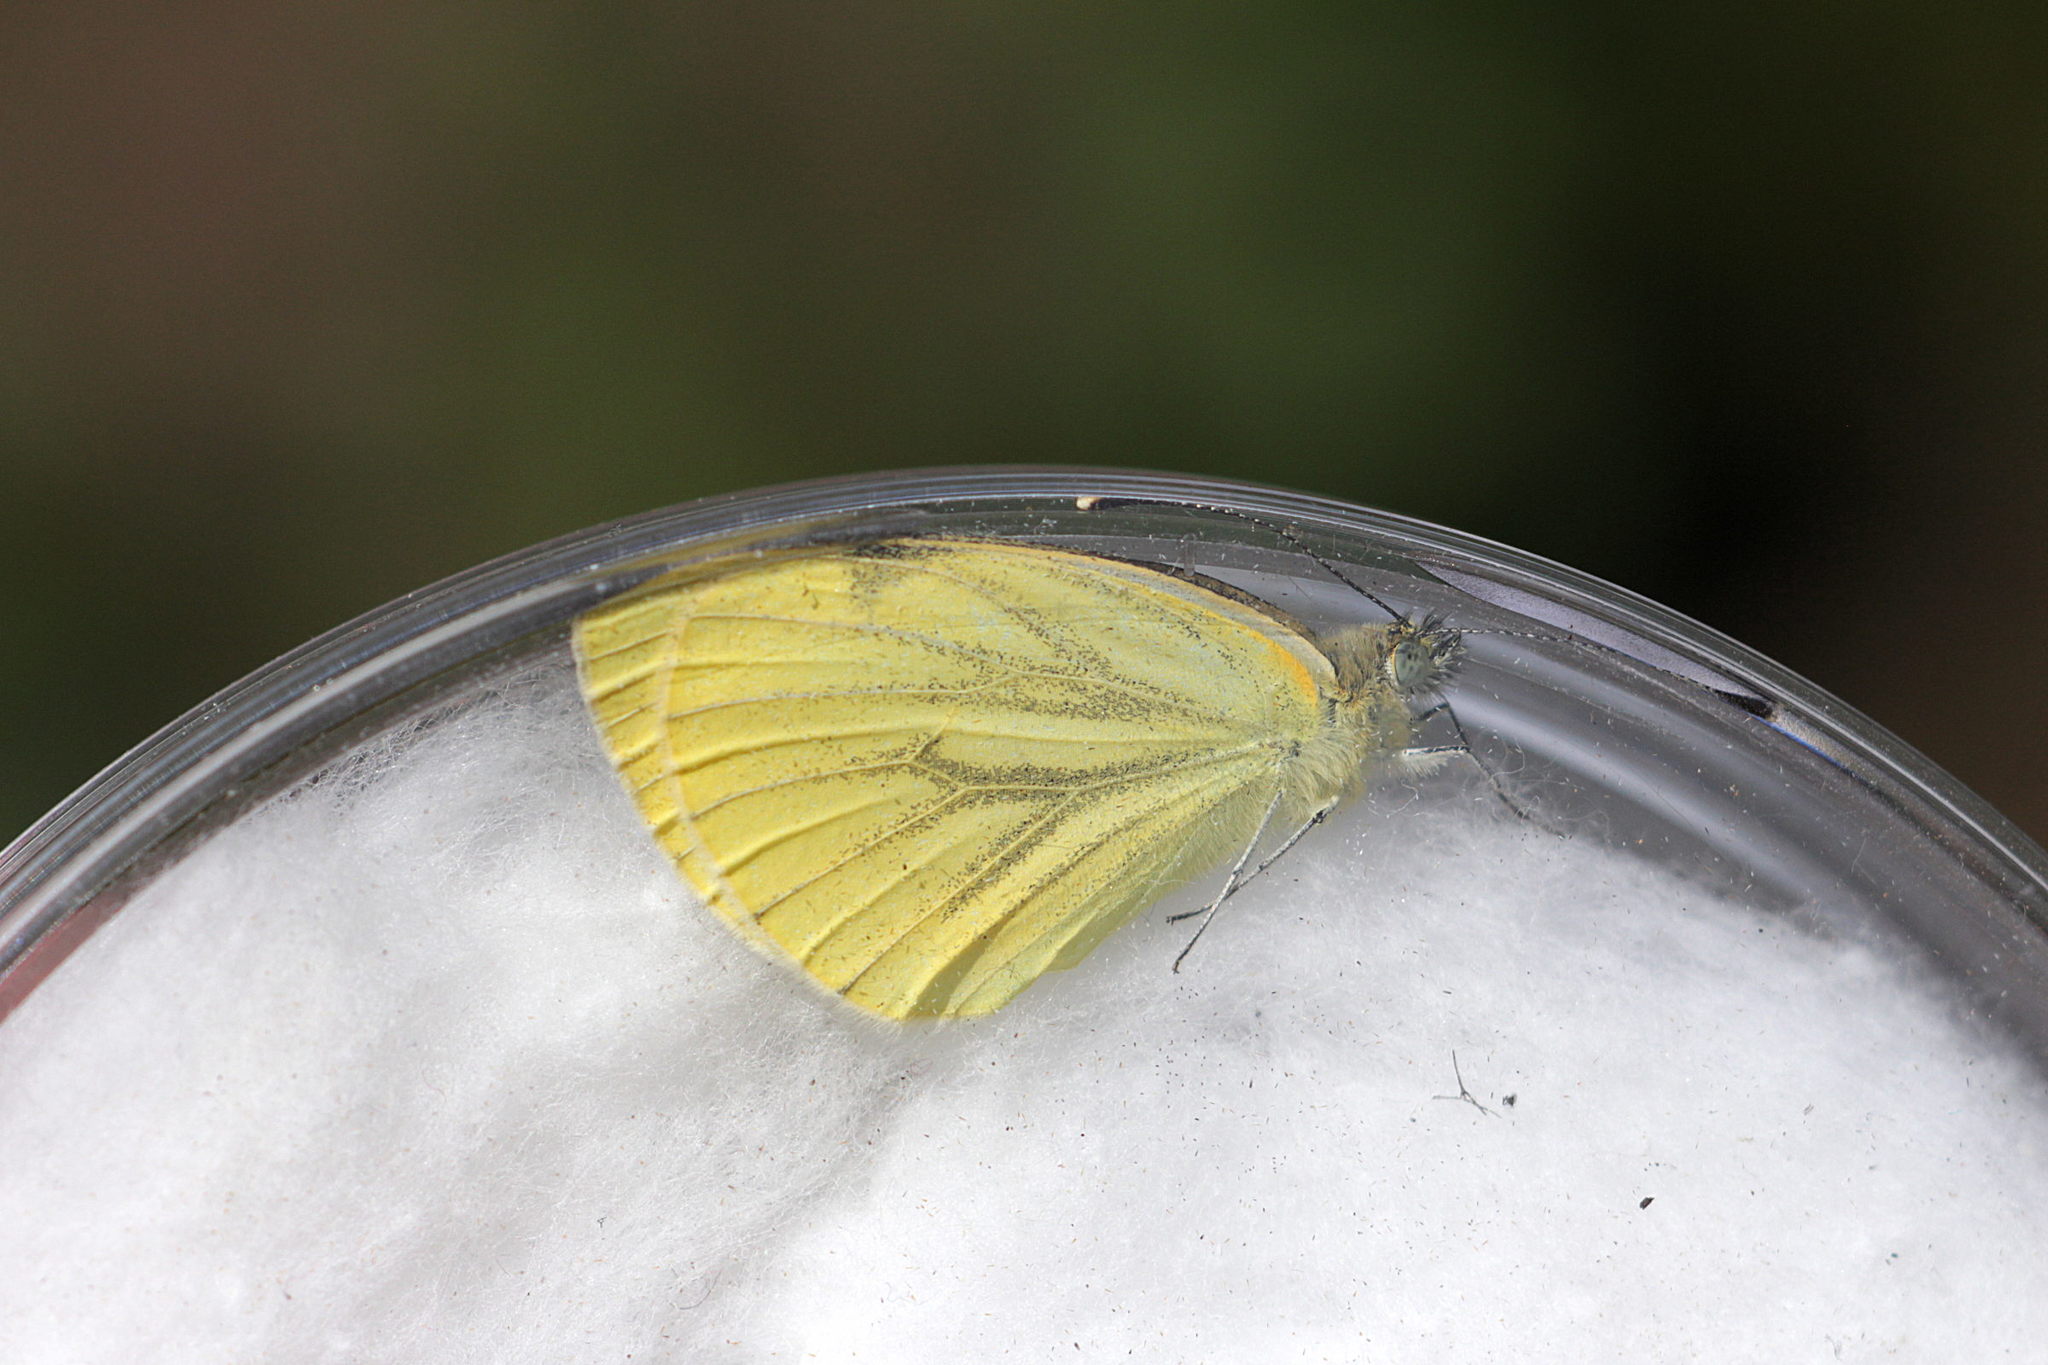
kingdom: Animalia
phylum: Arthropoda
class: Insecta
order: Lepidoptera
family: Pieridae
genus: Pieris
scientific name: Pieris napi
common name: Green-veined white
